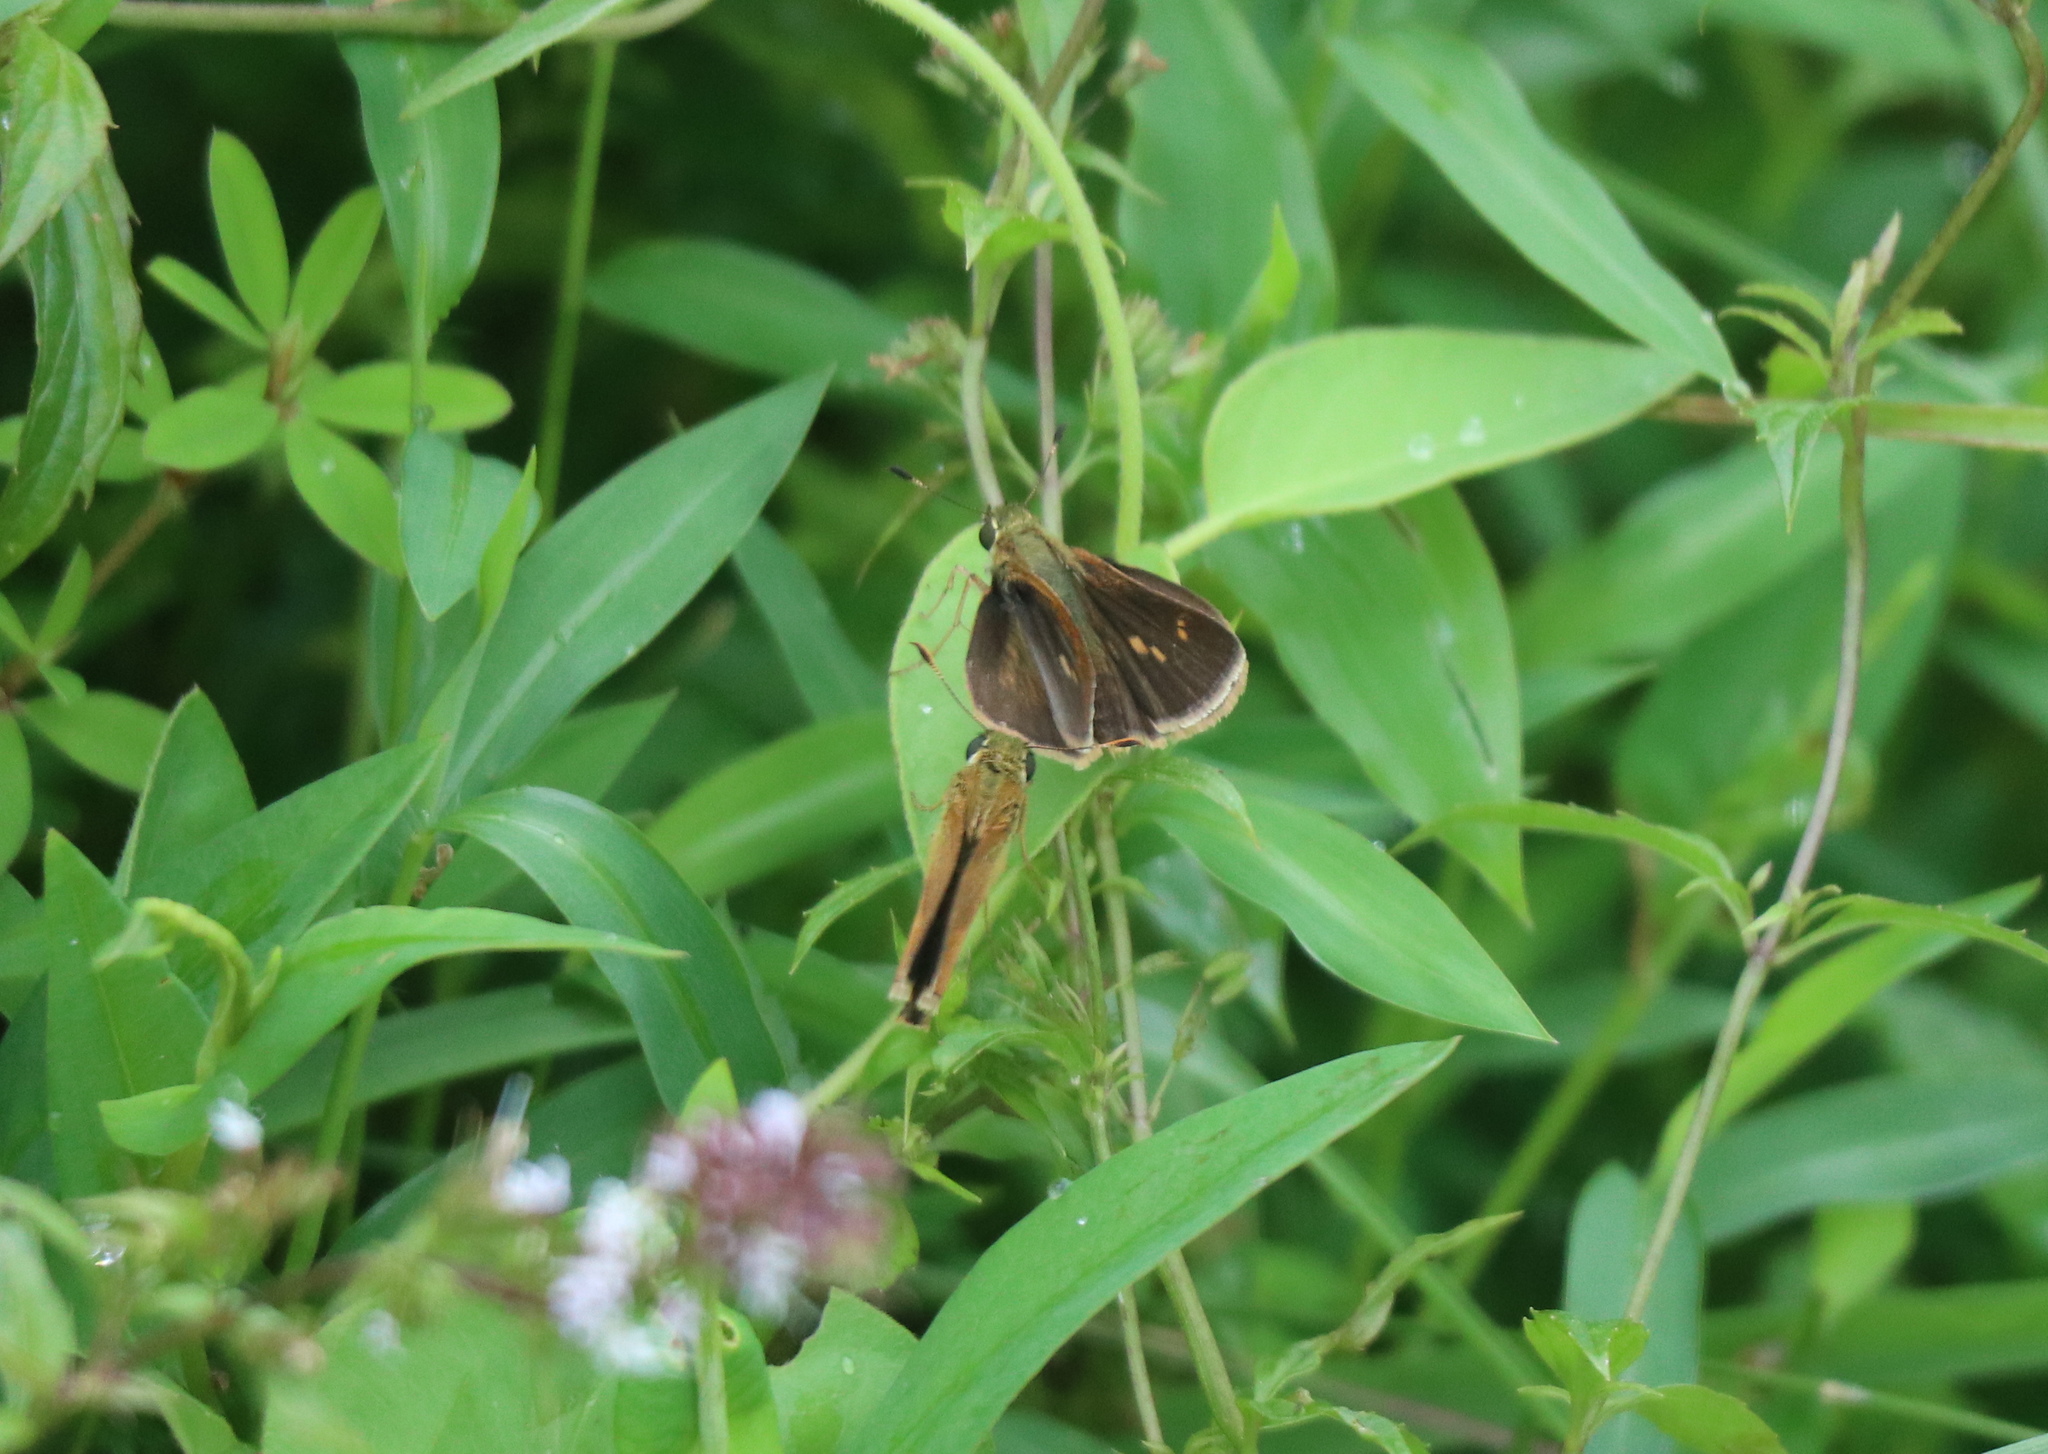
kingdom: Animalia
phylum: Arthropoda
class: Insecta
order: Lepidoptera
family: Hesperiidae
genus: Polites
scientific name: Polites egeremet
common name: Northern broken-dash
